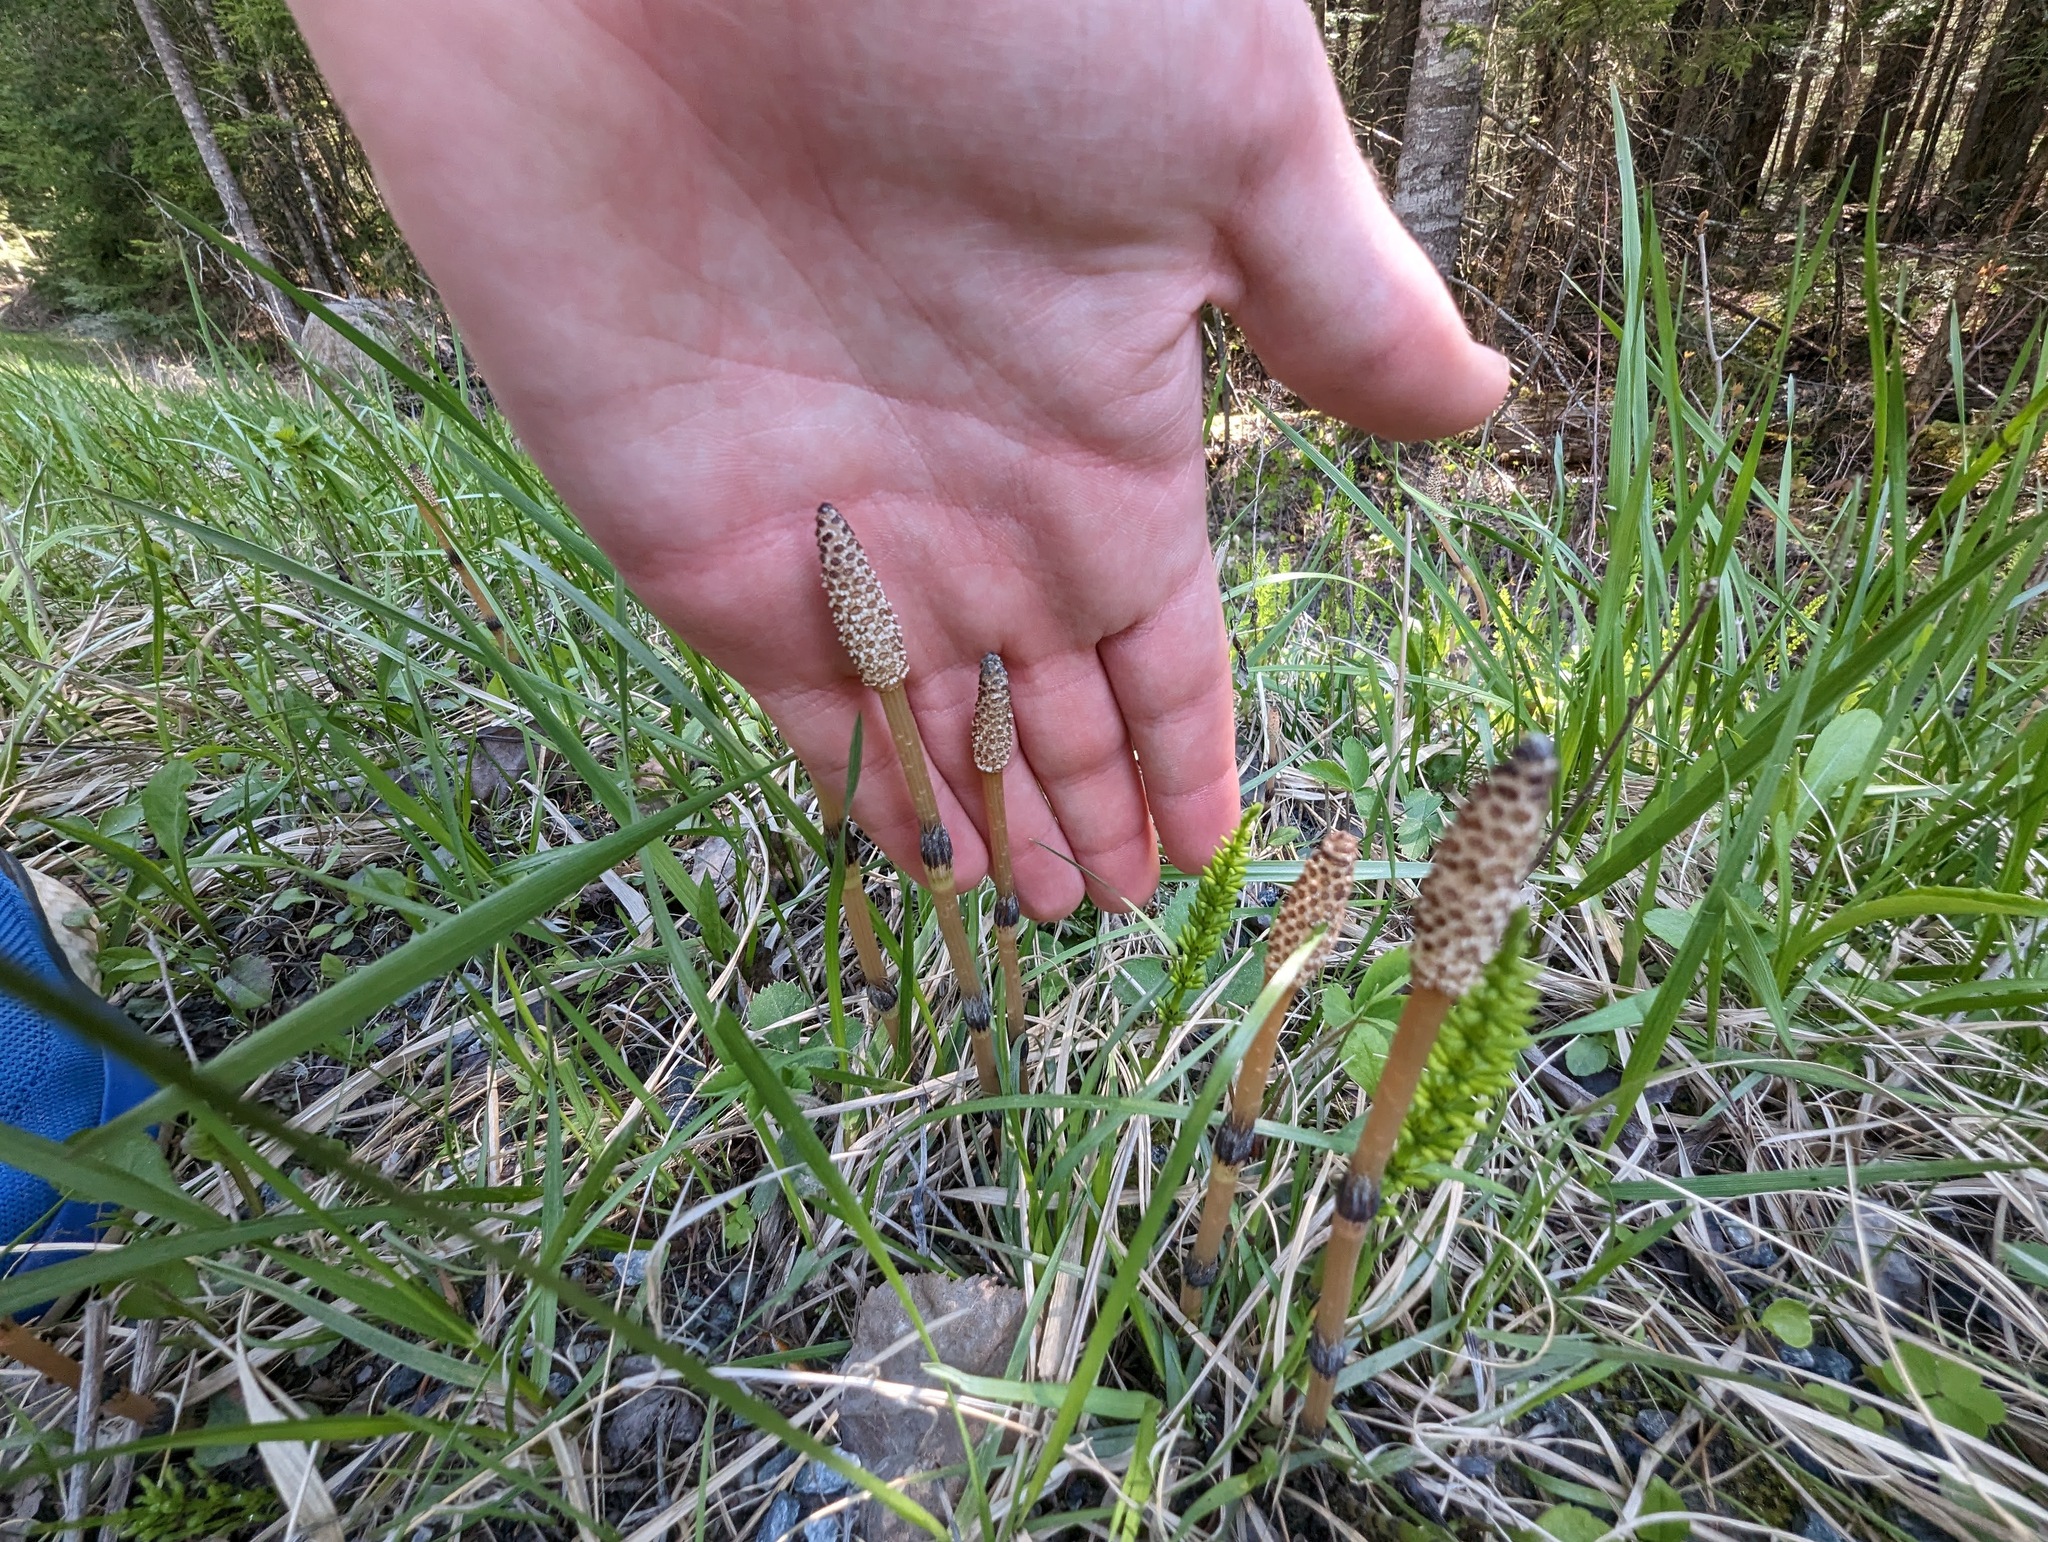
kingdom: Plantae
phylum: Tracheophyta
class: Polypodiopsida
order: Equisetales
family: Equisetaceae
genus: Equisetum
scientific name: Equisetum arvense
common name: Field horsetail
